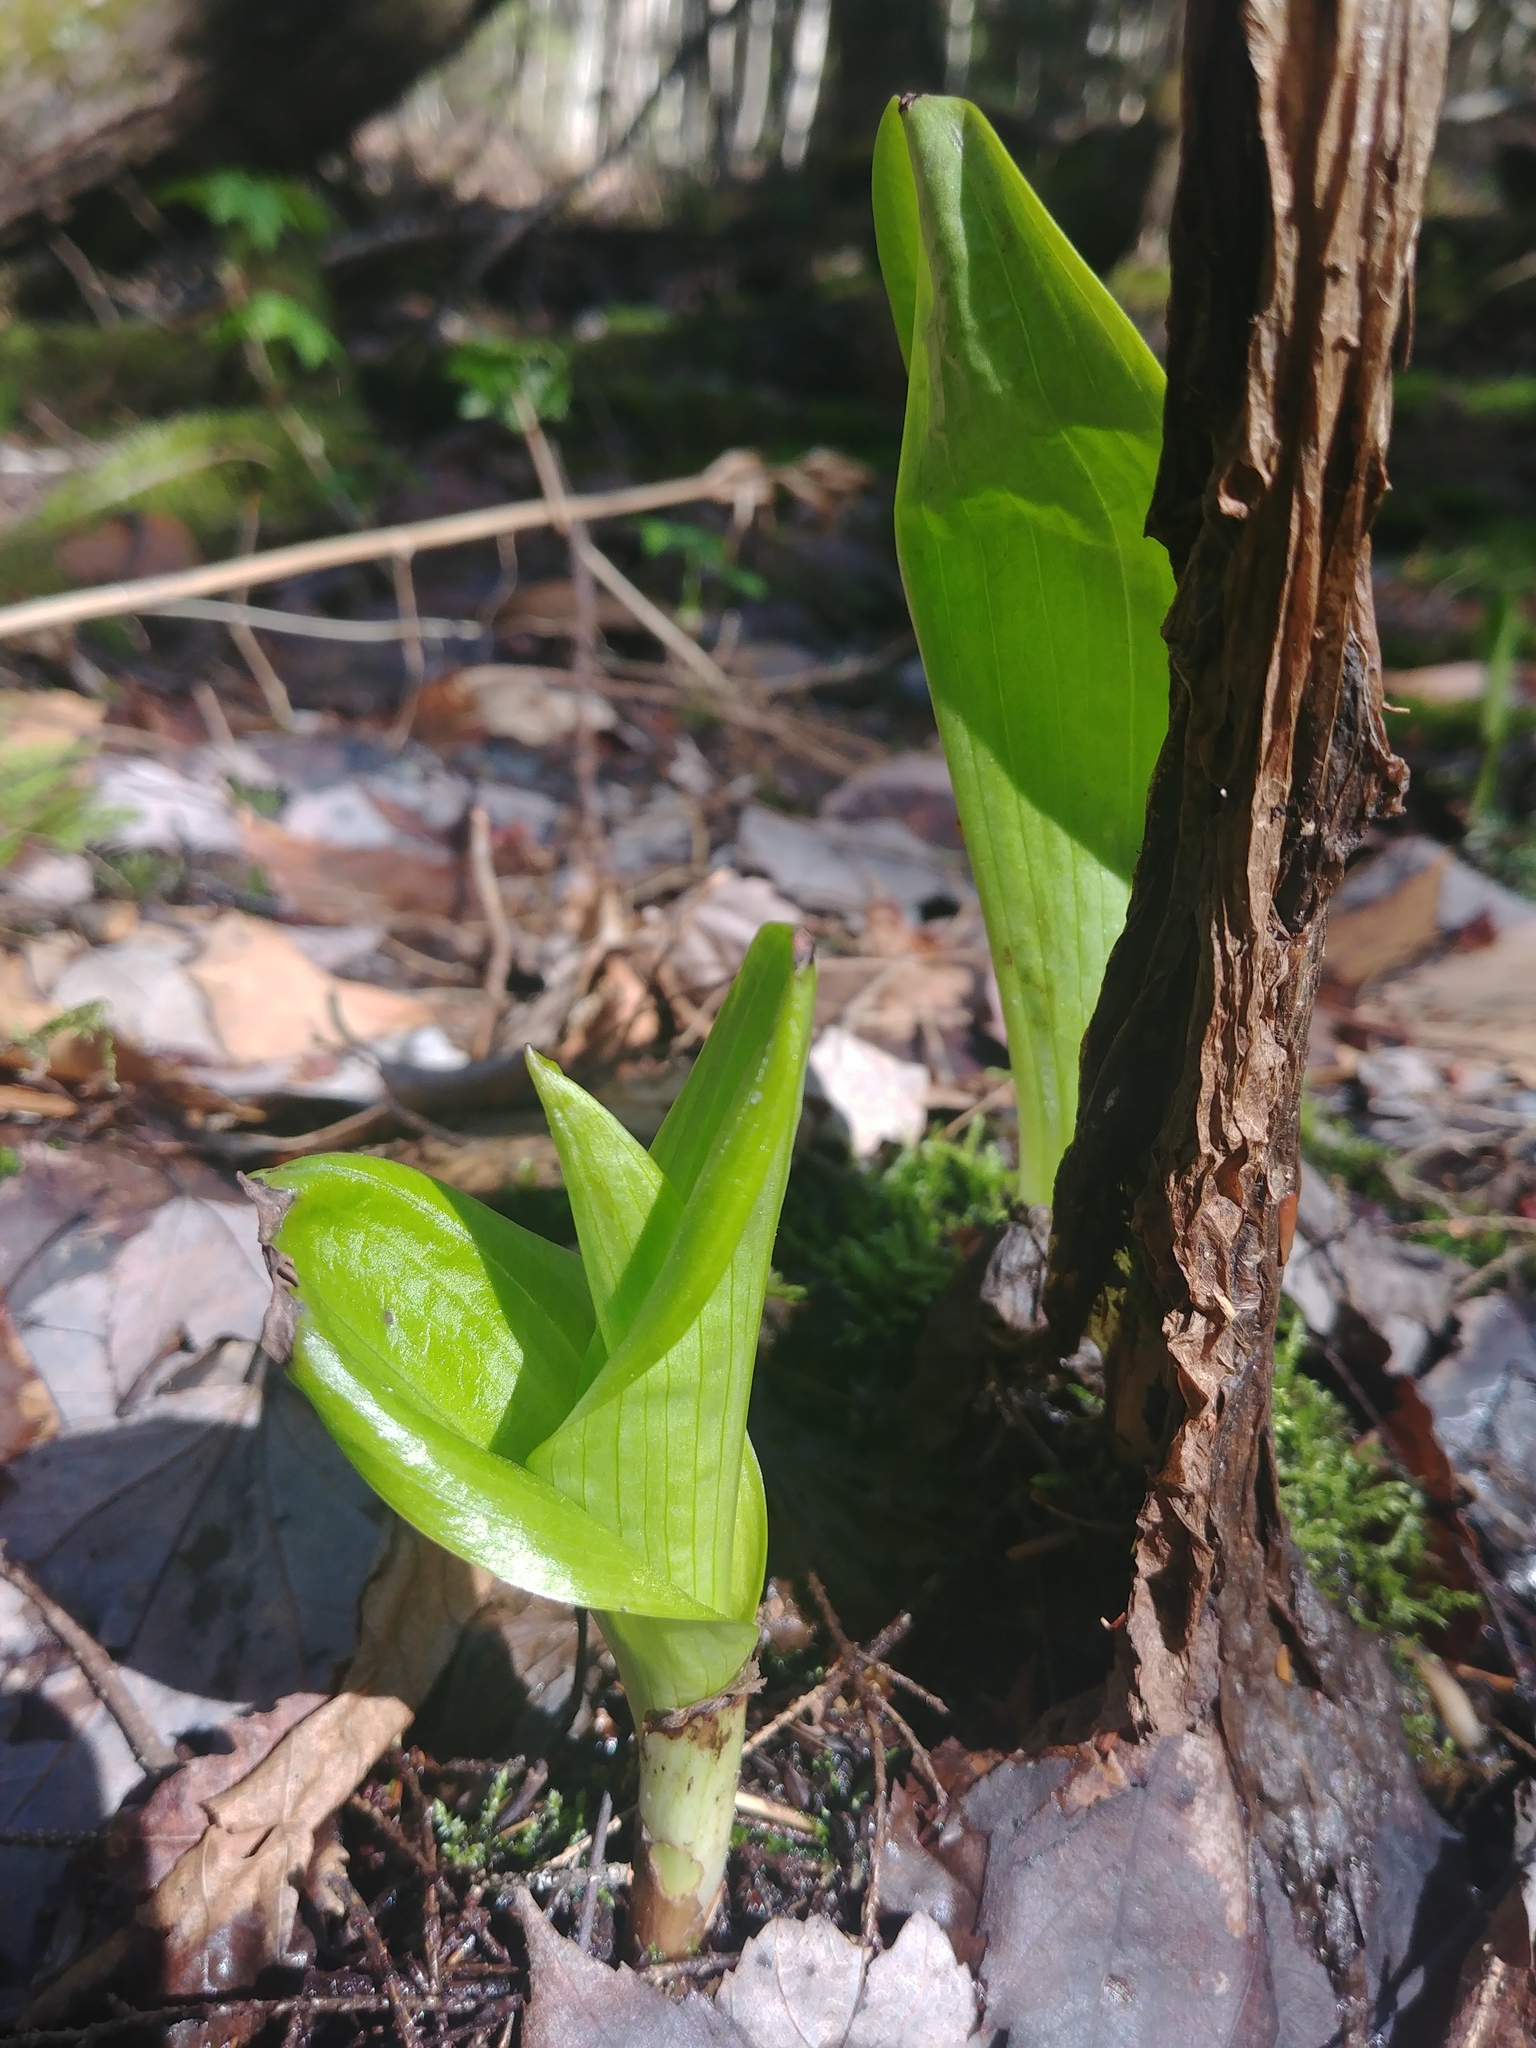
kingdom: Plantae
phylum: Tracheophyta
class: Liliopsida
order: Asparagales
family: Orchidaceae
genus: Platanthera
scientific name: Platanthera grandiflora
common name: Greater purple fringed orchid
